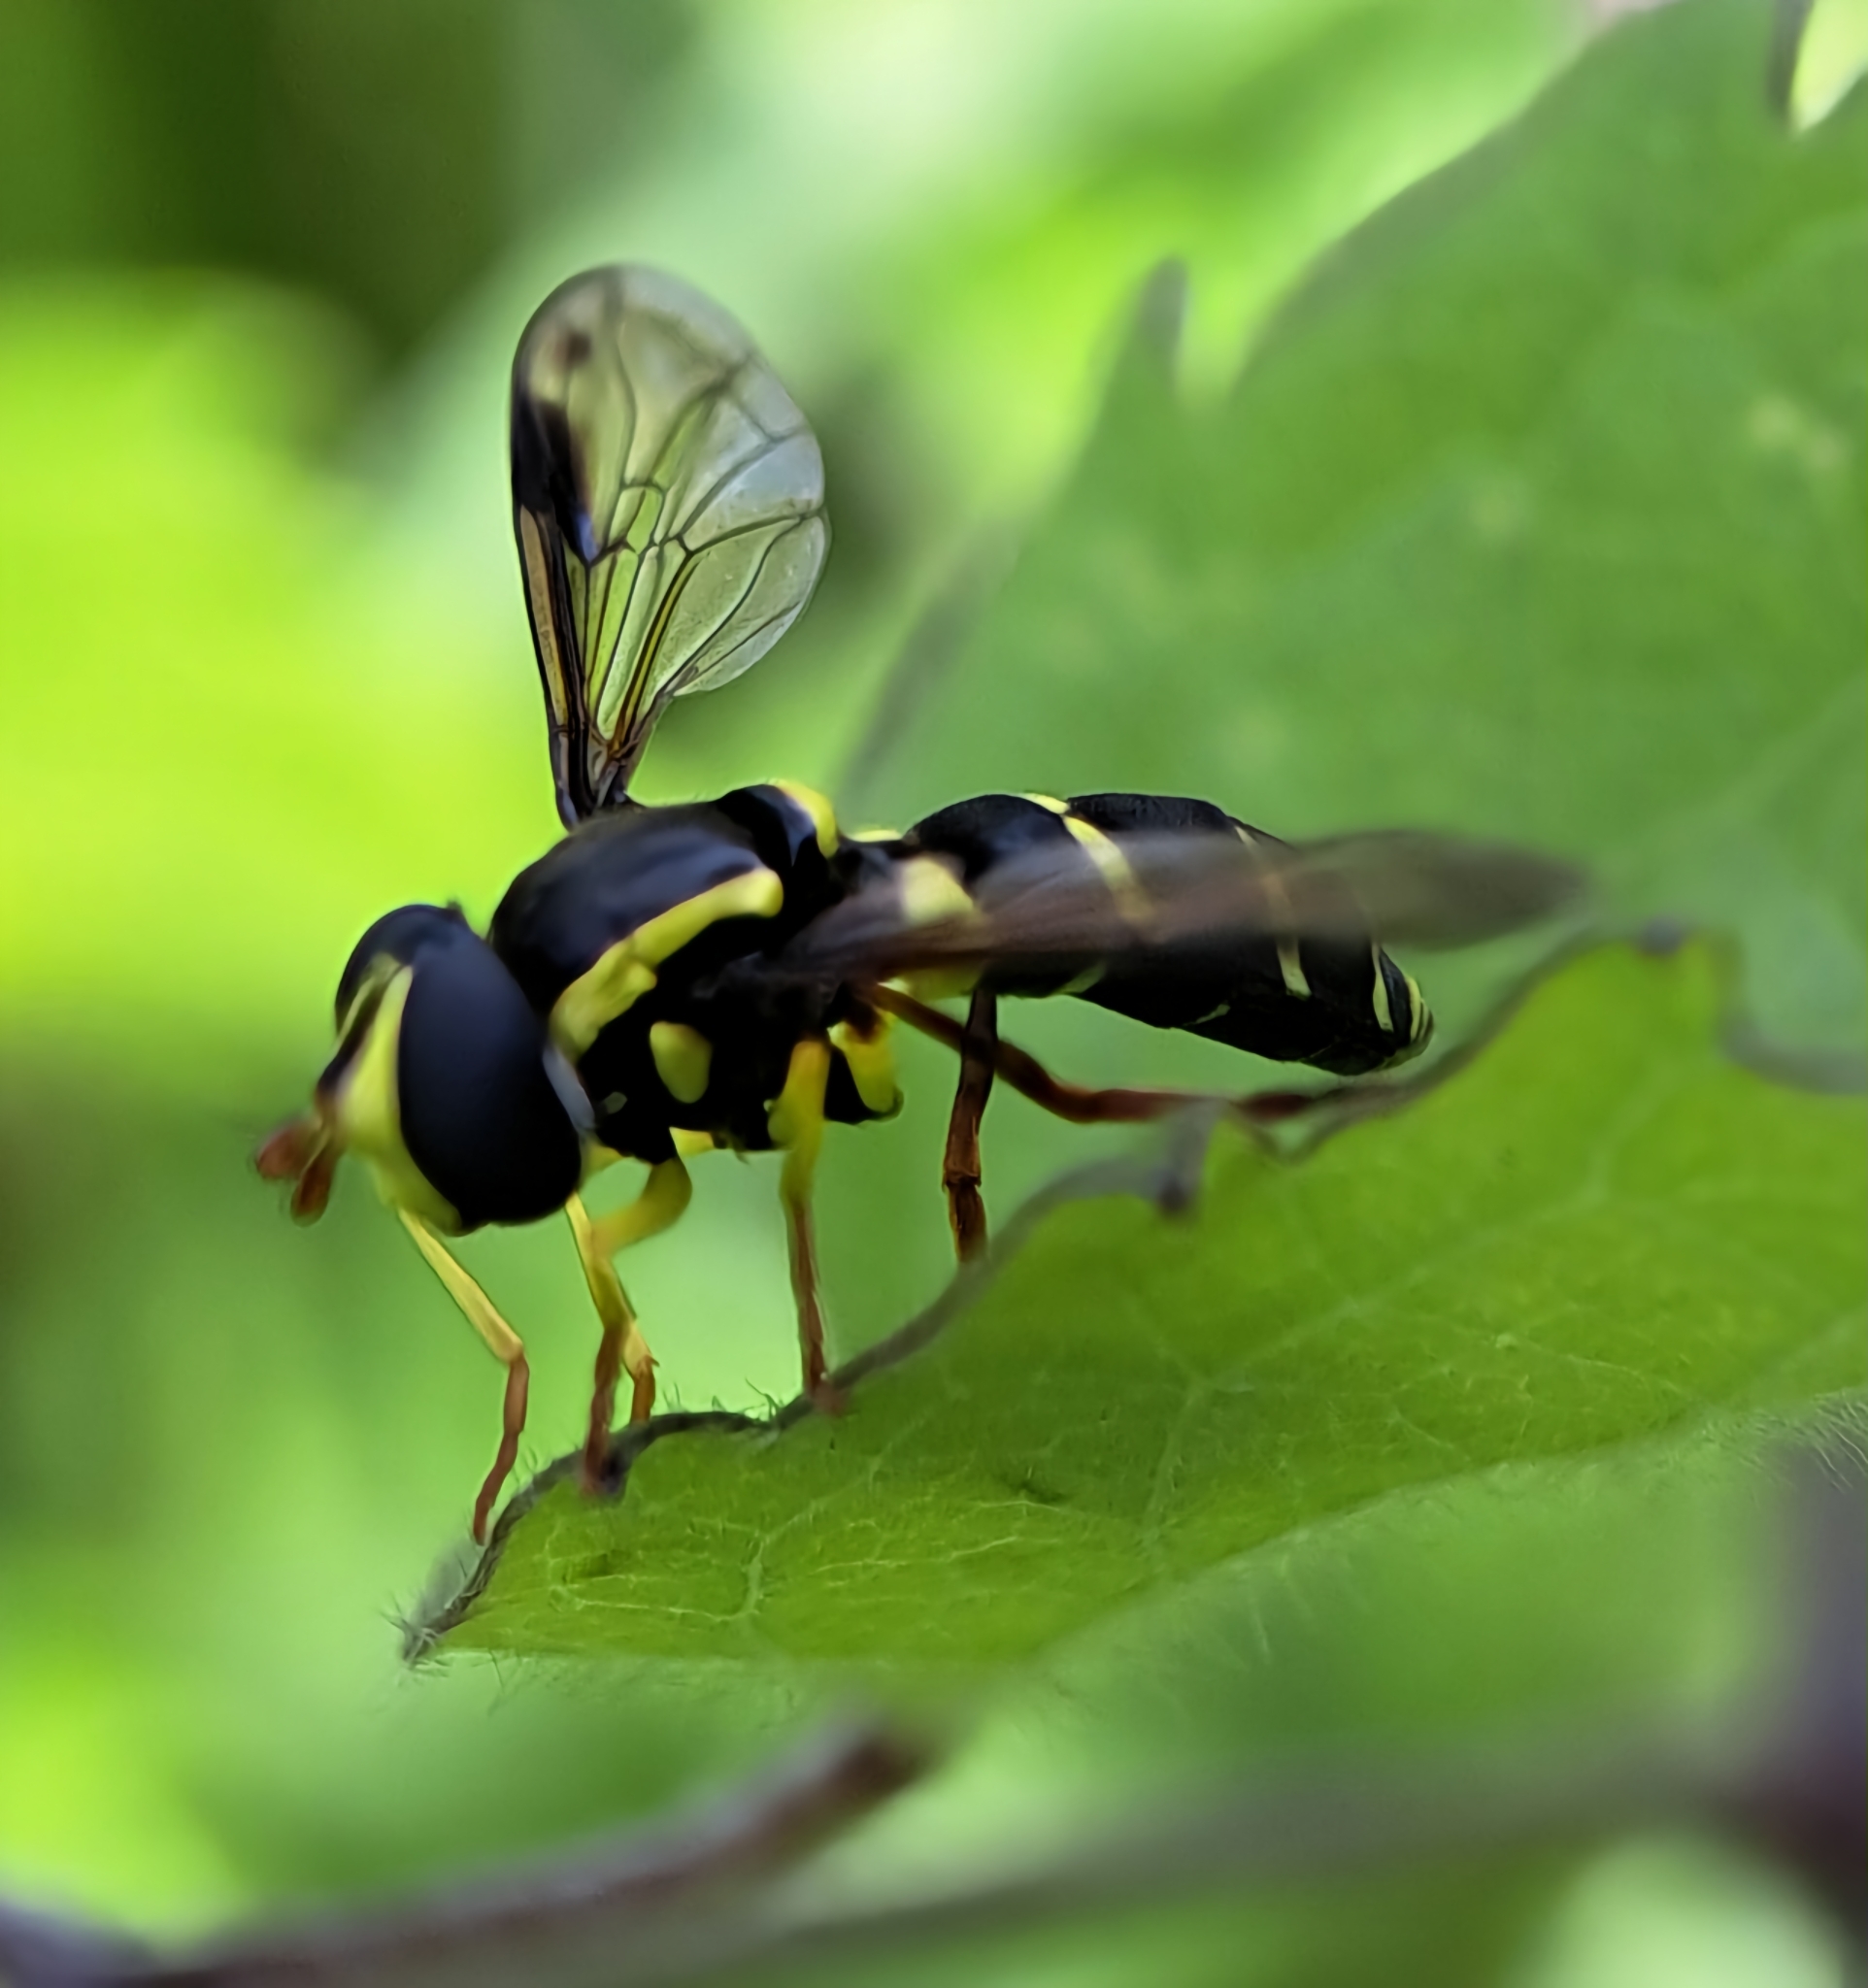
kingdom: Animalia
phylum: Arthropoda
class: Insecta
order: Diptera
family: Syrphidae
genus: Philhelius
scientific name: Philhelius pedissequum
